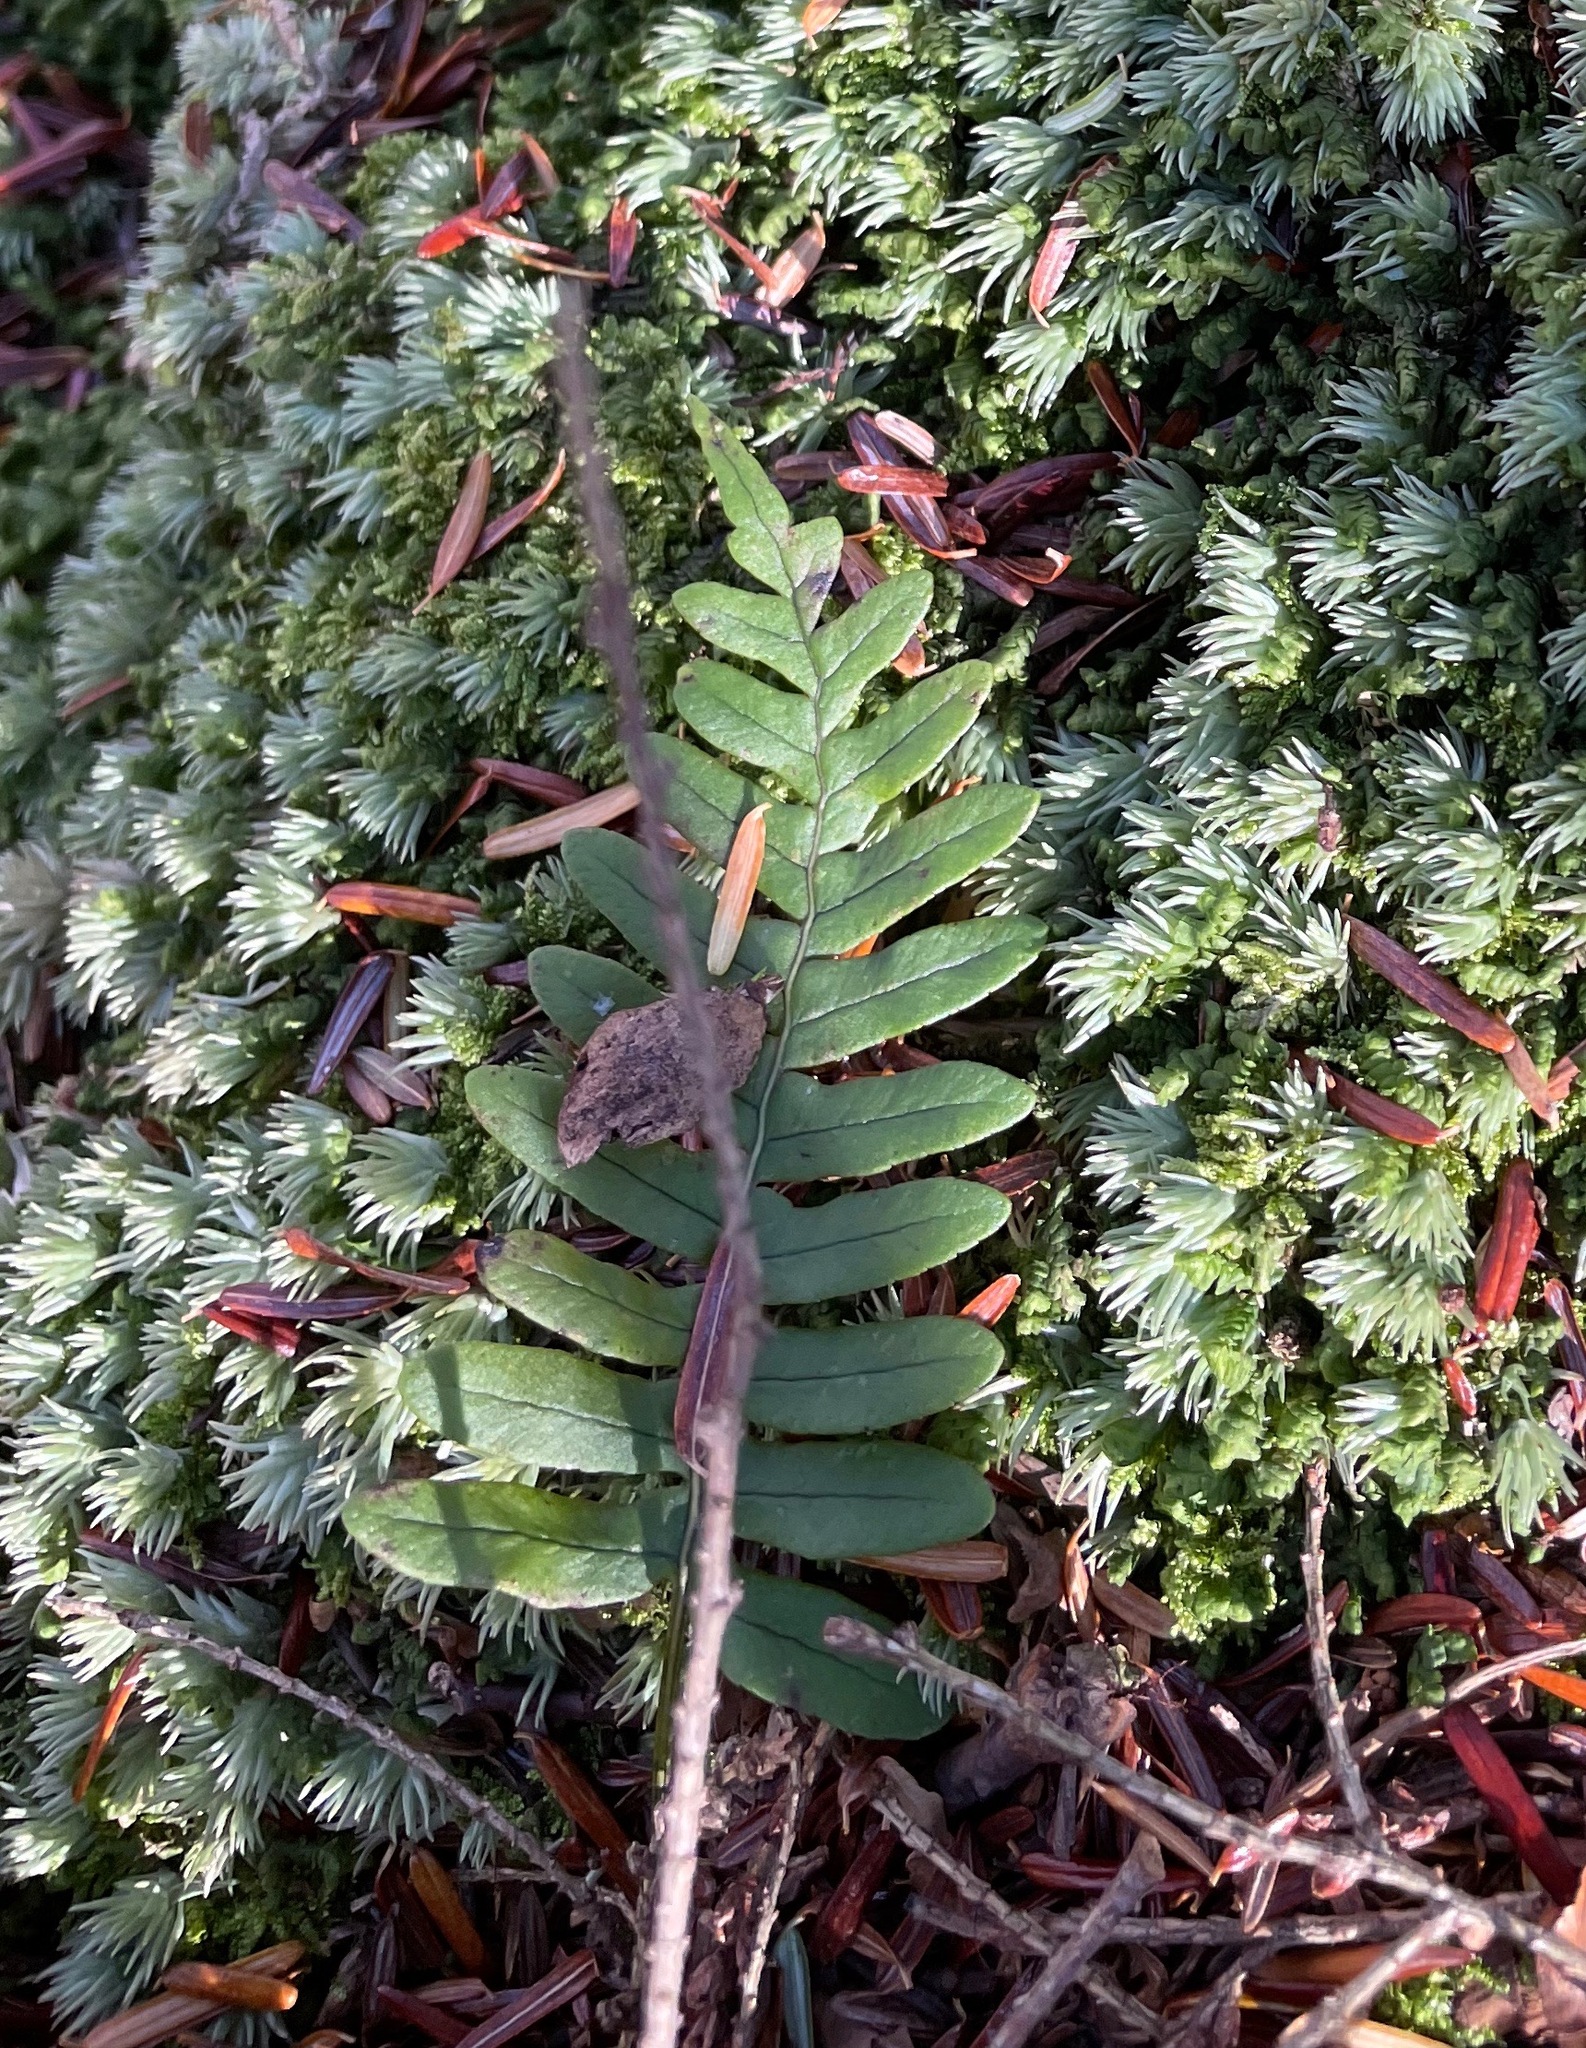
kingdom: Plantae
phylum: Tracheophyta
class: Polypodiopsida
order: Polypodiales
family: Polypodiaceae
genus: Polypodium
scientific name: Polypodium virginianum
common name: American wall fern
